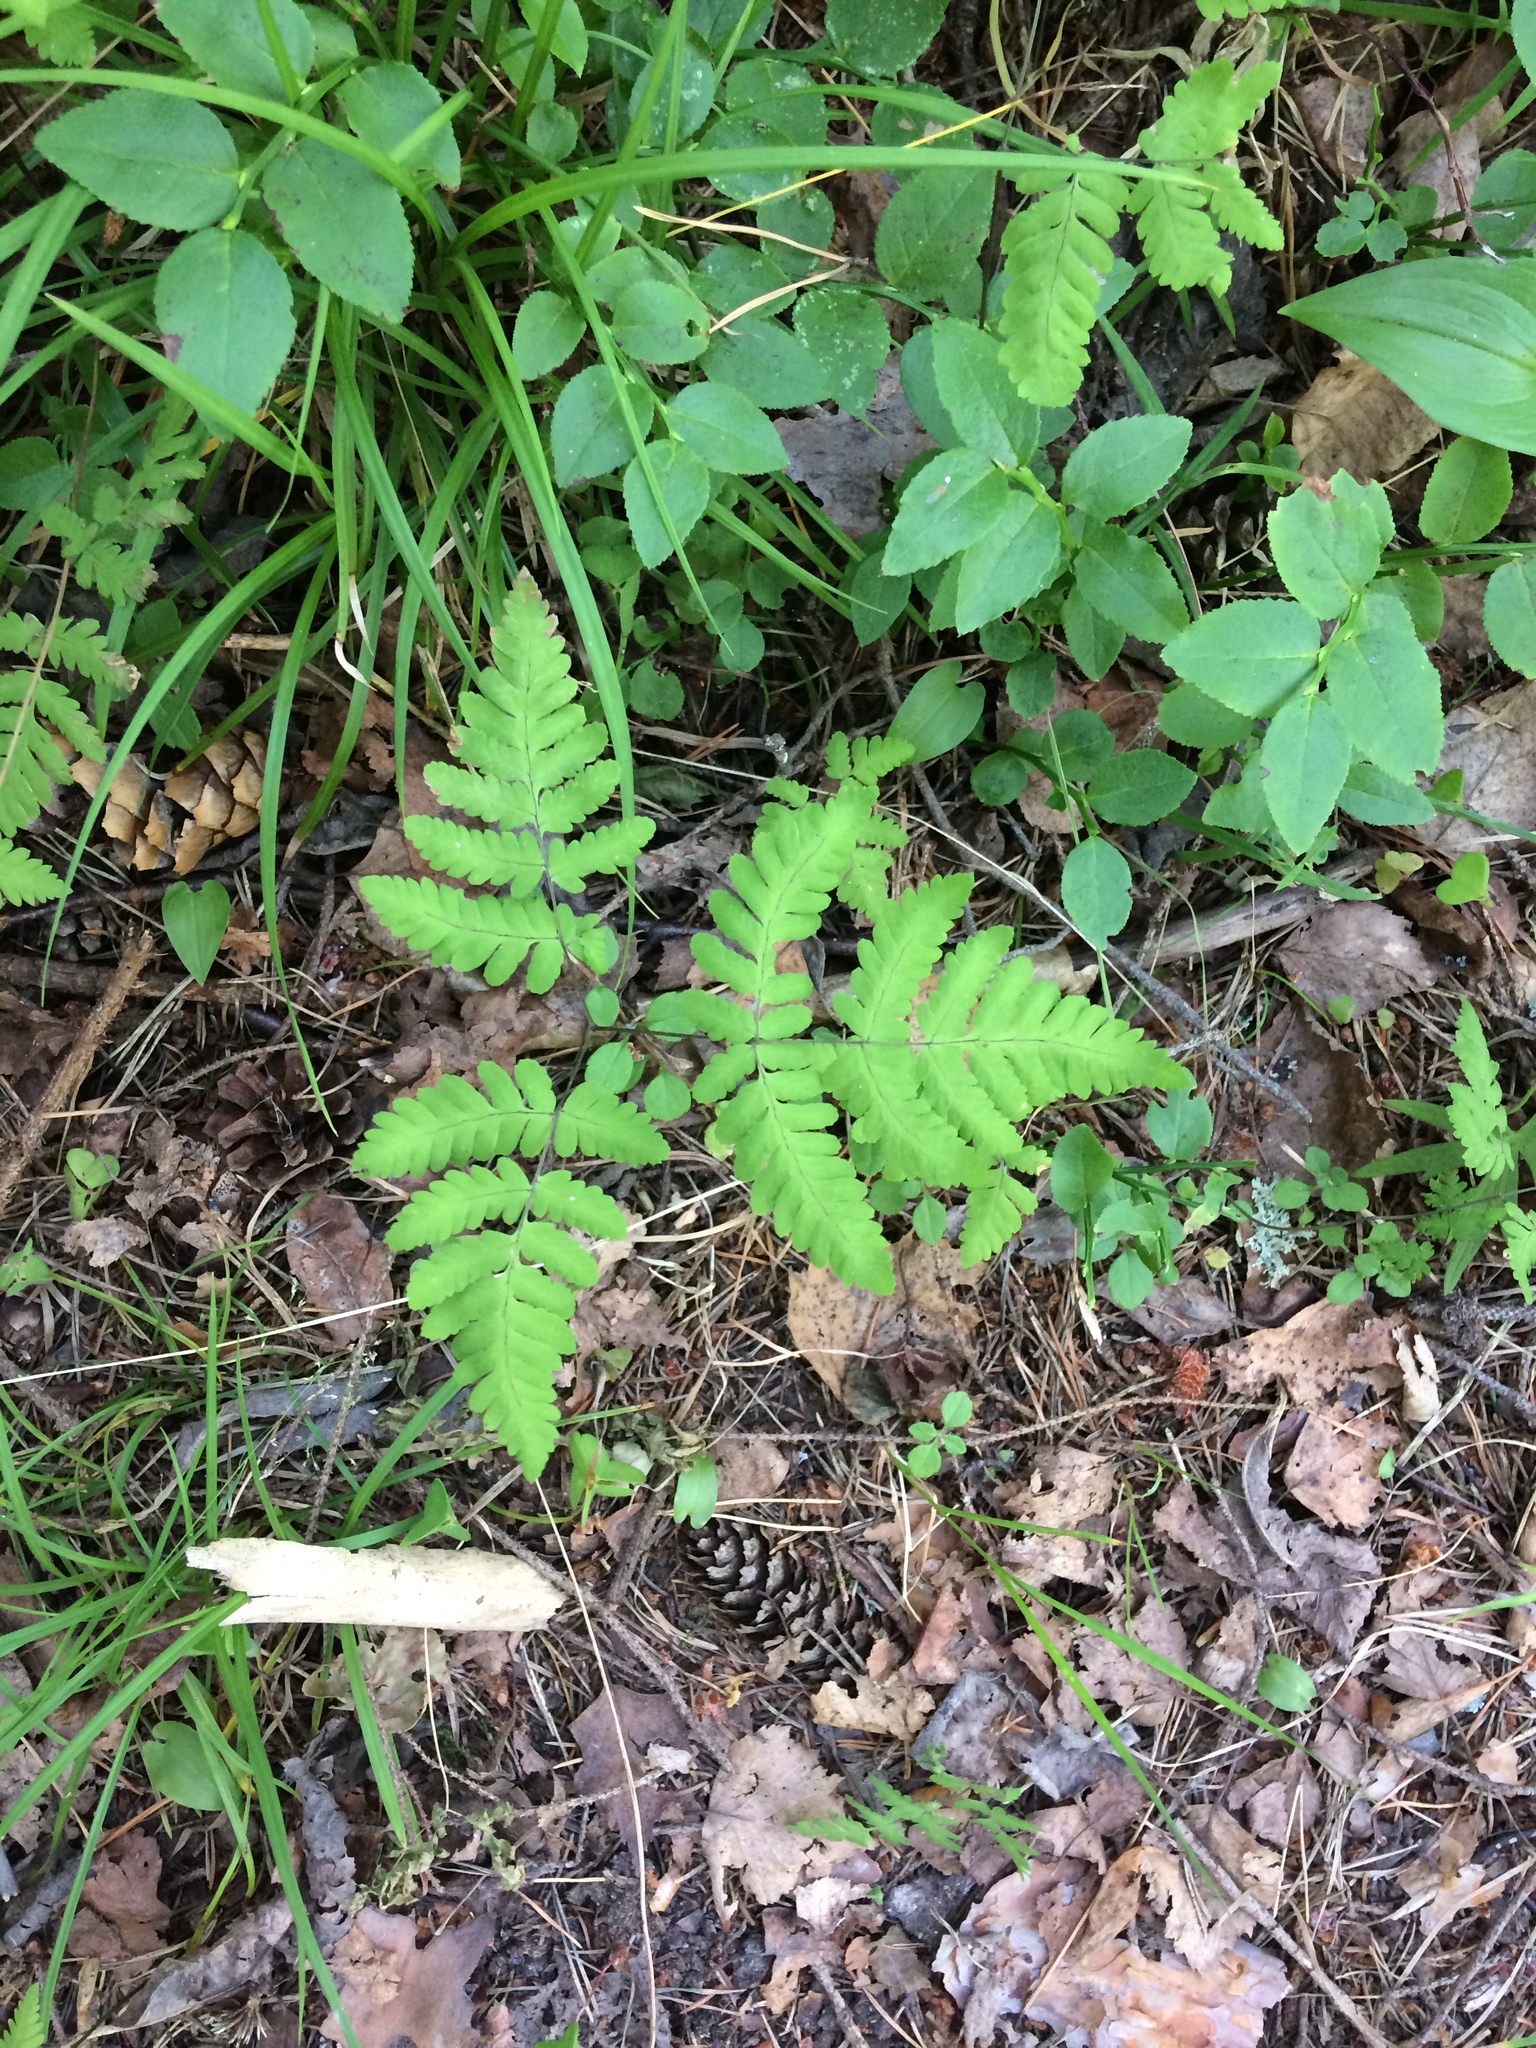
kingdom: Plantae
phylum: Tracheophyta
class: Polypodiopsida
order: Polypodiales
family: Cystopteridaceae
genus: Gymnocarpium
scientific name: Gymnocarpium dryopteris
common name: Oak fern
